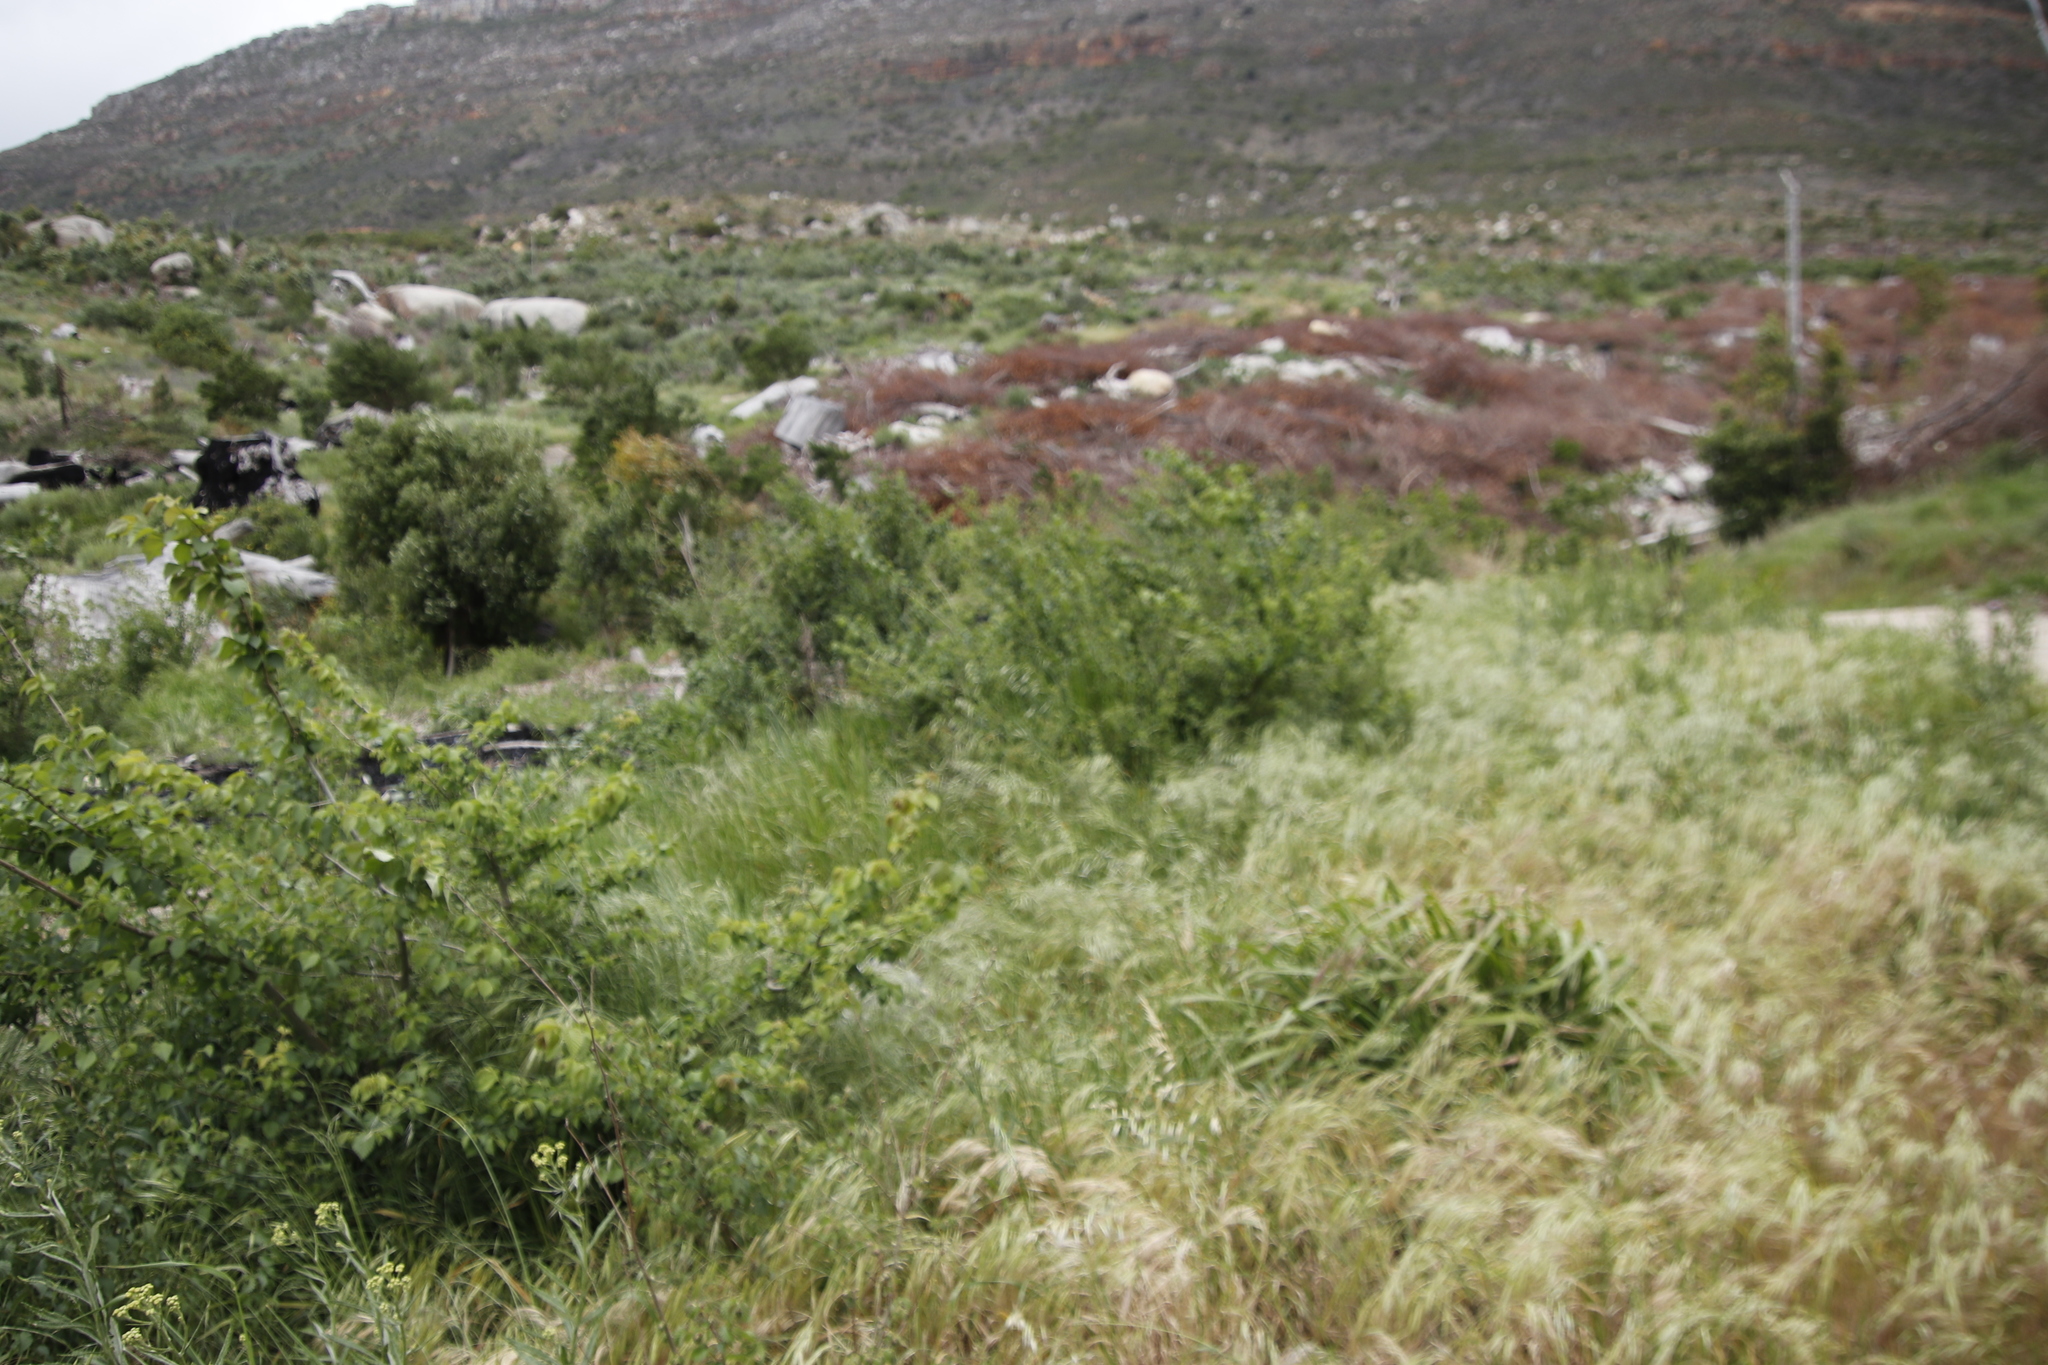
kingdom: Plantae
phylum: Tracheophyta
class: Magnoliopsida
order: Rosales
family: Ulmaceae
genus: Ulmus
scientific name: Ulmus minor
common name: Small-leaved elm
